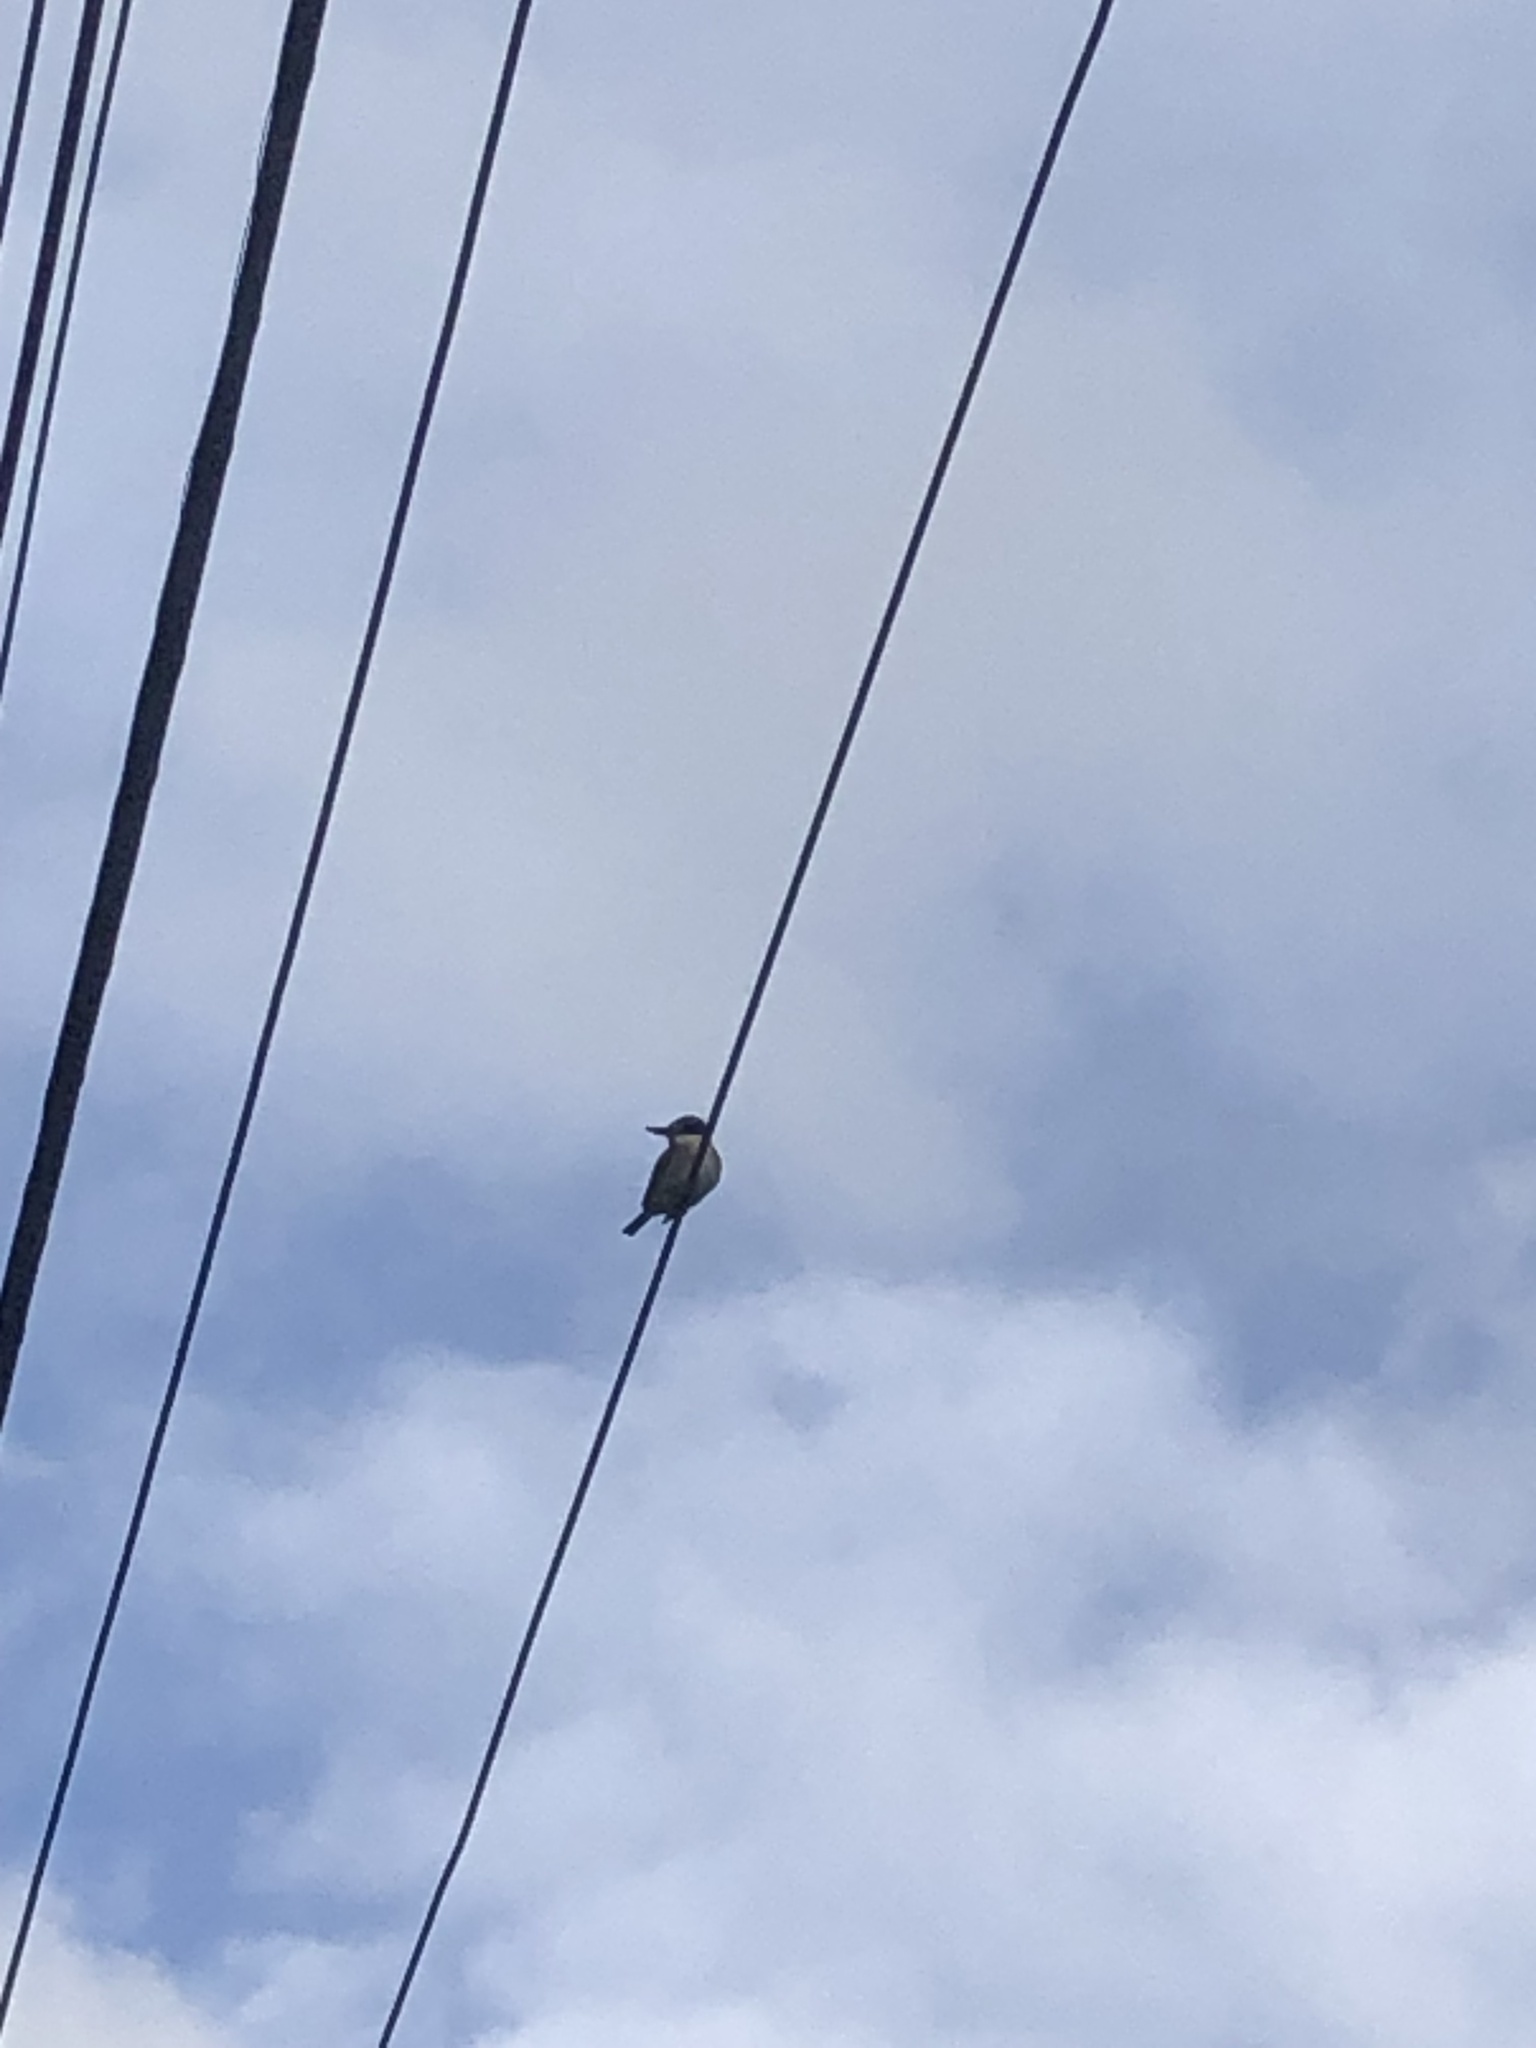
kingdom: Animalia
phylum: Chordata
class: Aves
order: Coraciiformes
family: Alcedinidae
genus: Todiramphus
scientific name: Todiramphus sanctus
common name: Sacred kingfisher
